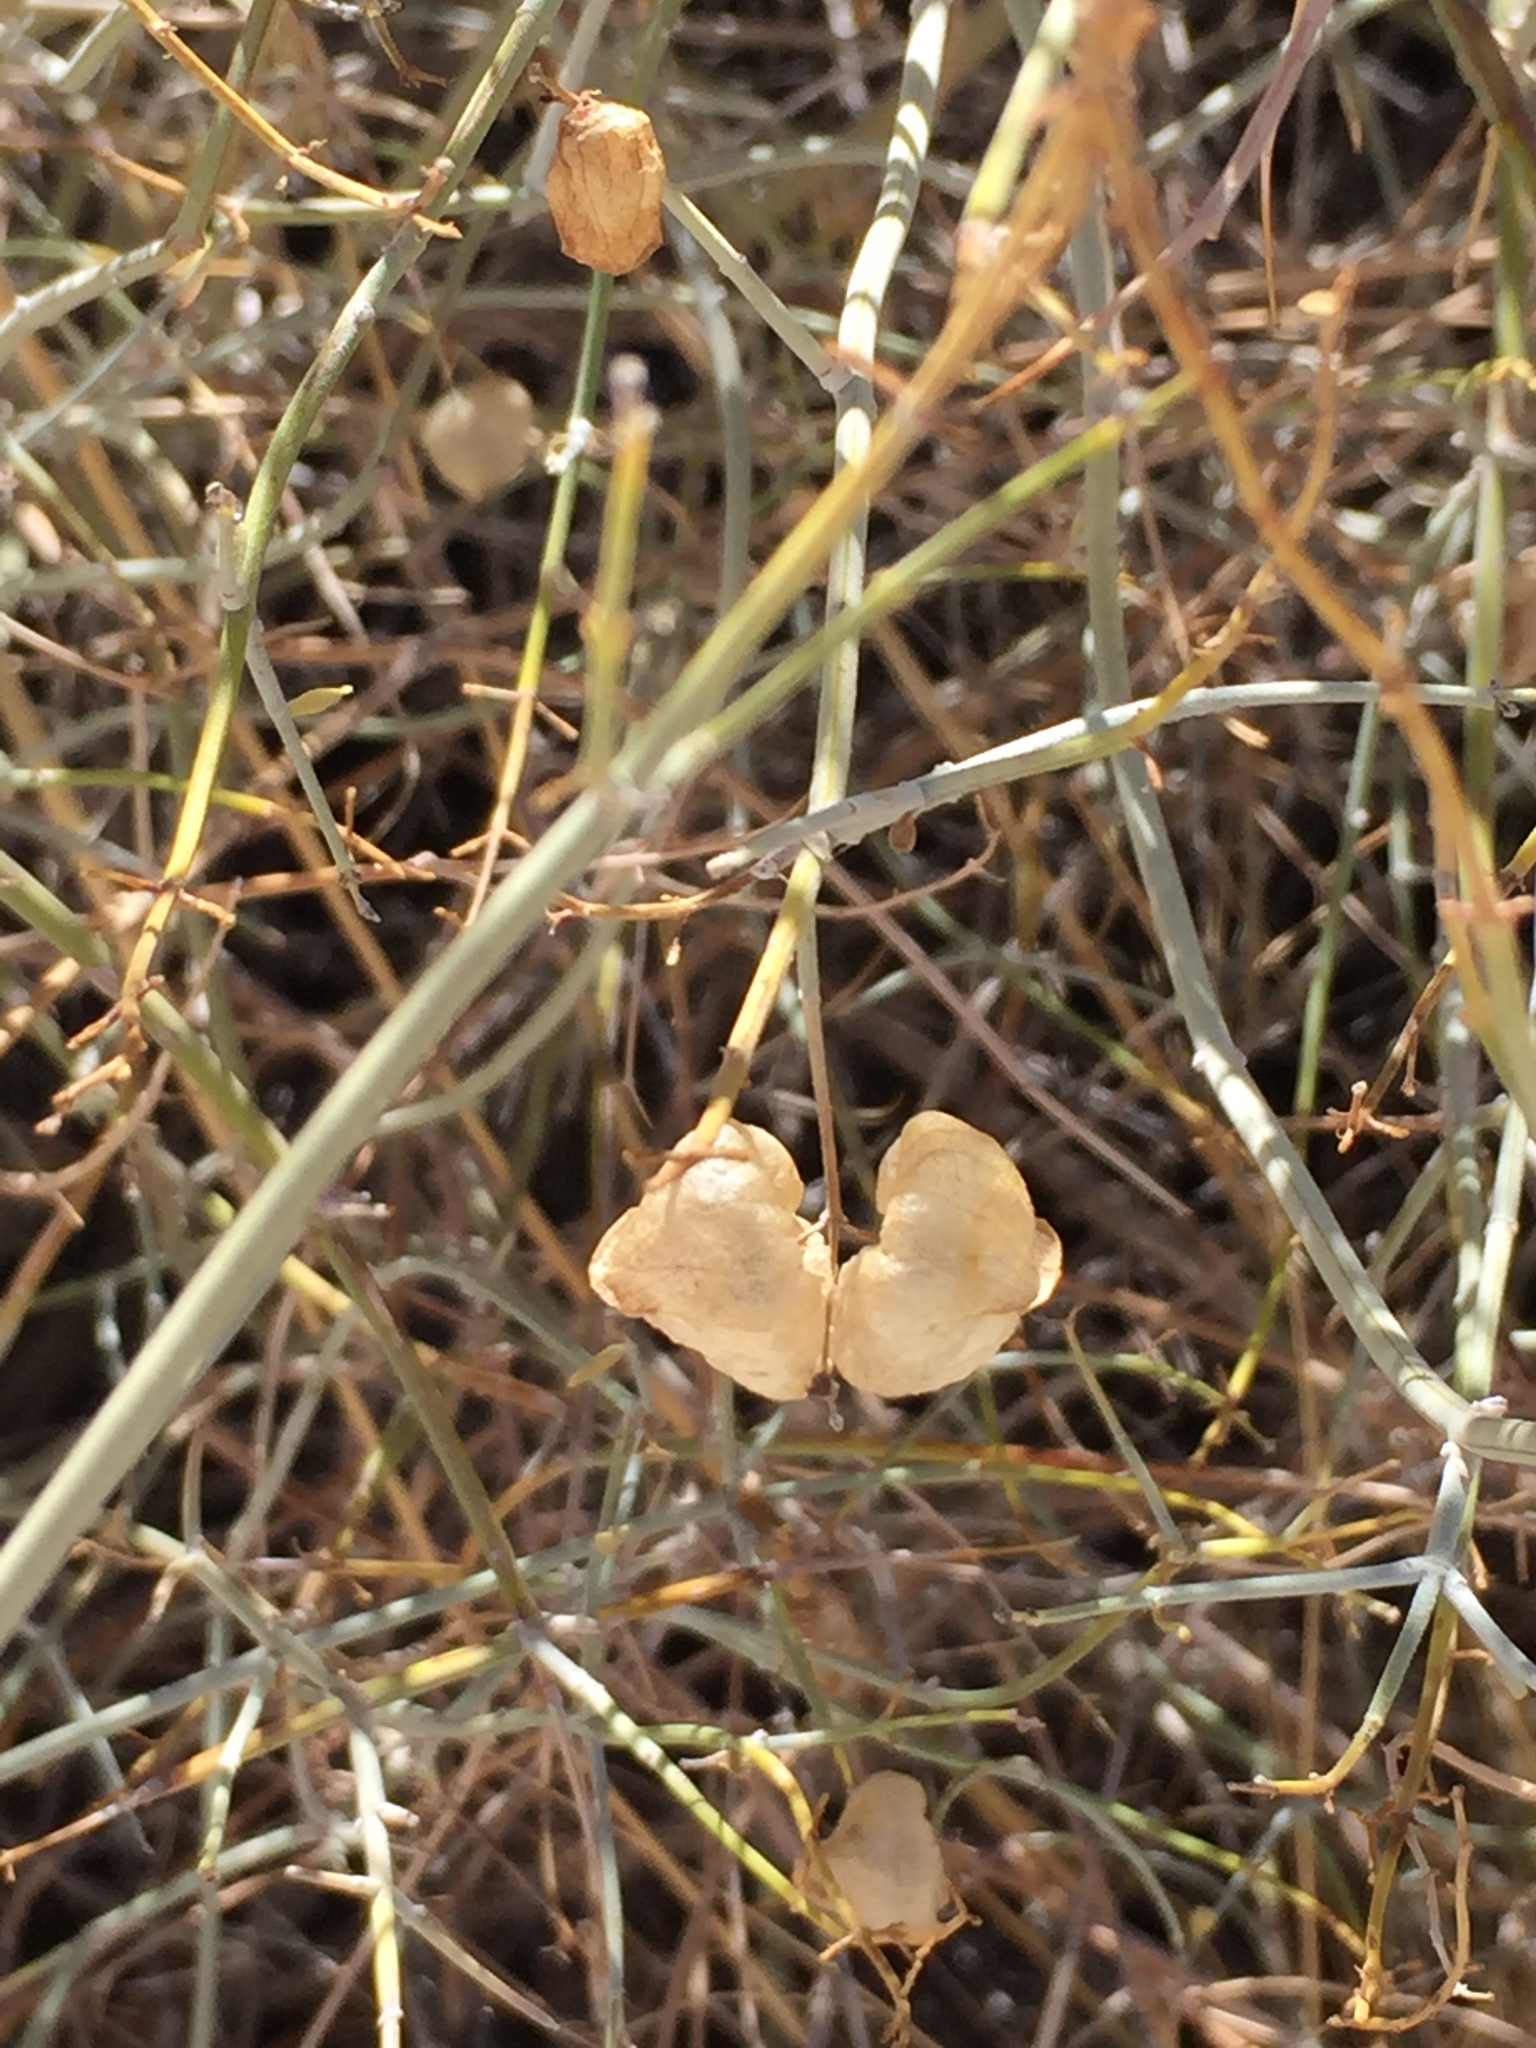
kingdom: Plantae
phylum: Tracheophyta
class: Magnoliopsida
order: Lamiales
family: Lamiaceae
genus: Scutellaria
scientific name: Scutellaria mexicana
